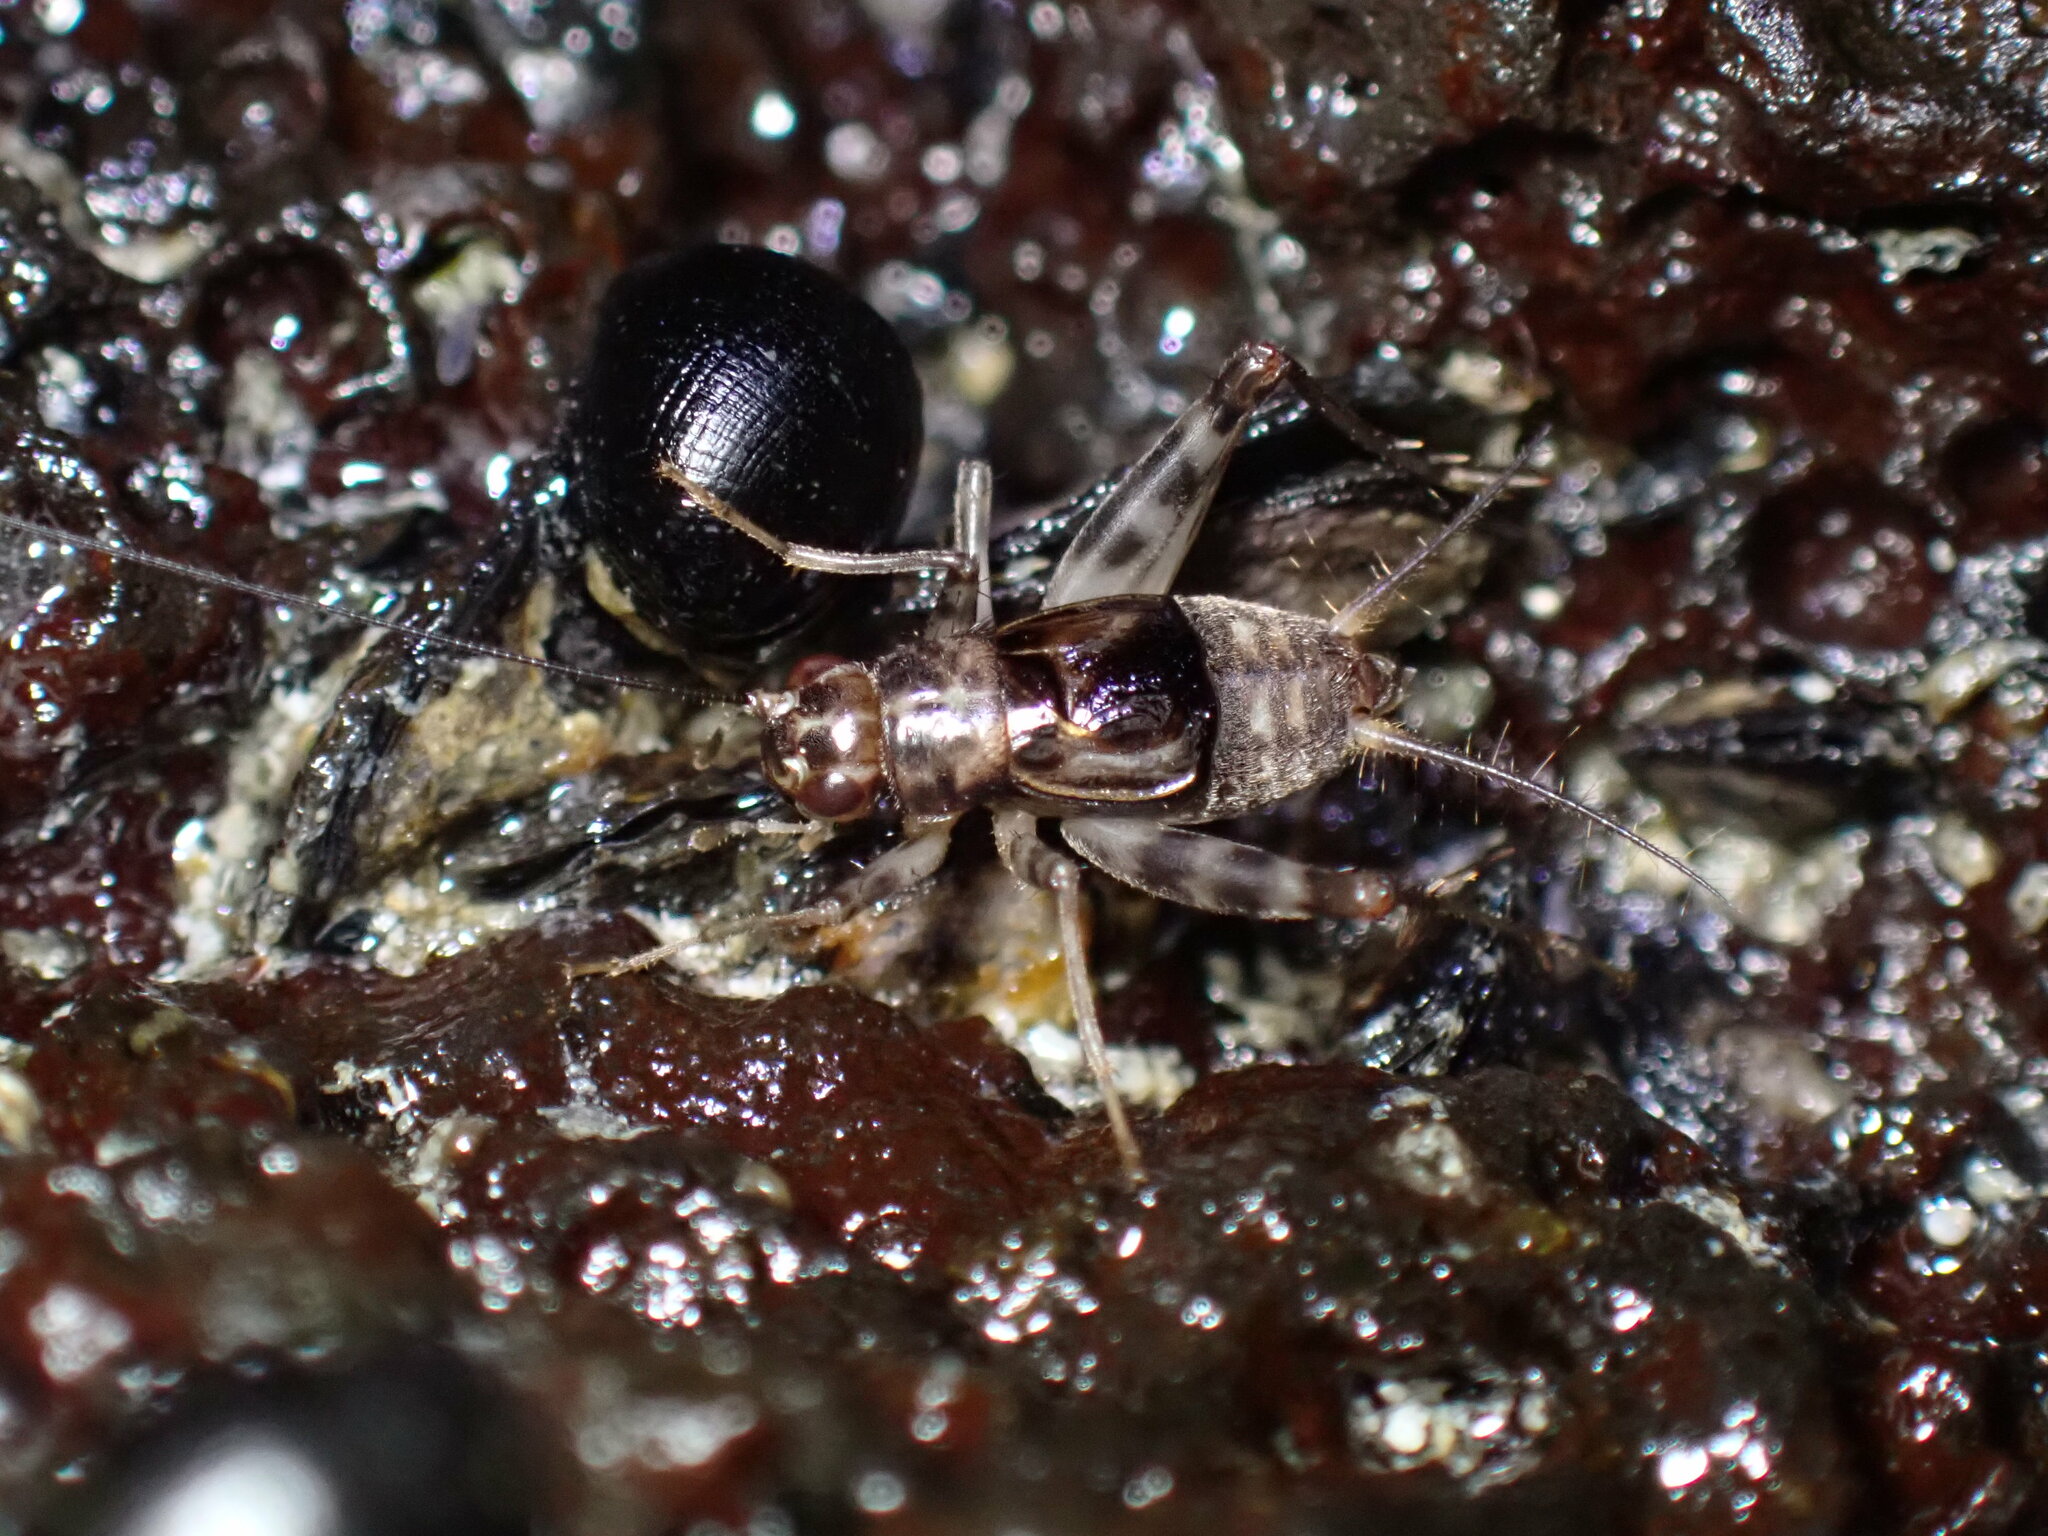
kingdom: Animalia
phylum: Arthropoda
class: Insecta
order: Orthoptera
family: Trigonidiidae
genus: Burcus
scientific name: Burcus tarnis
